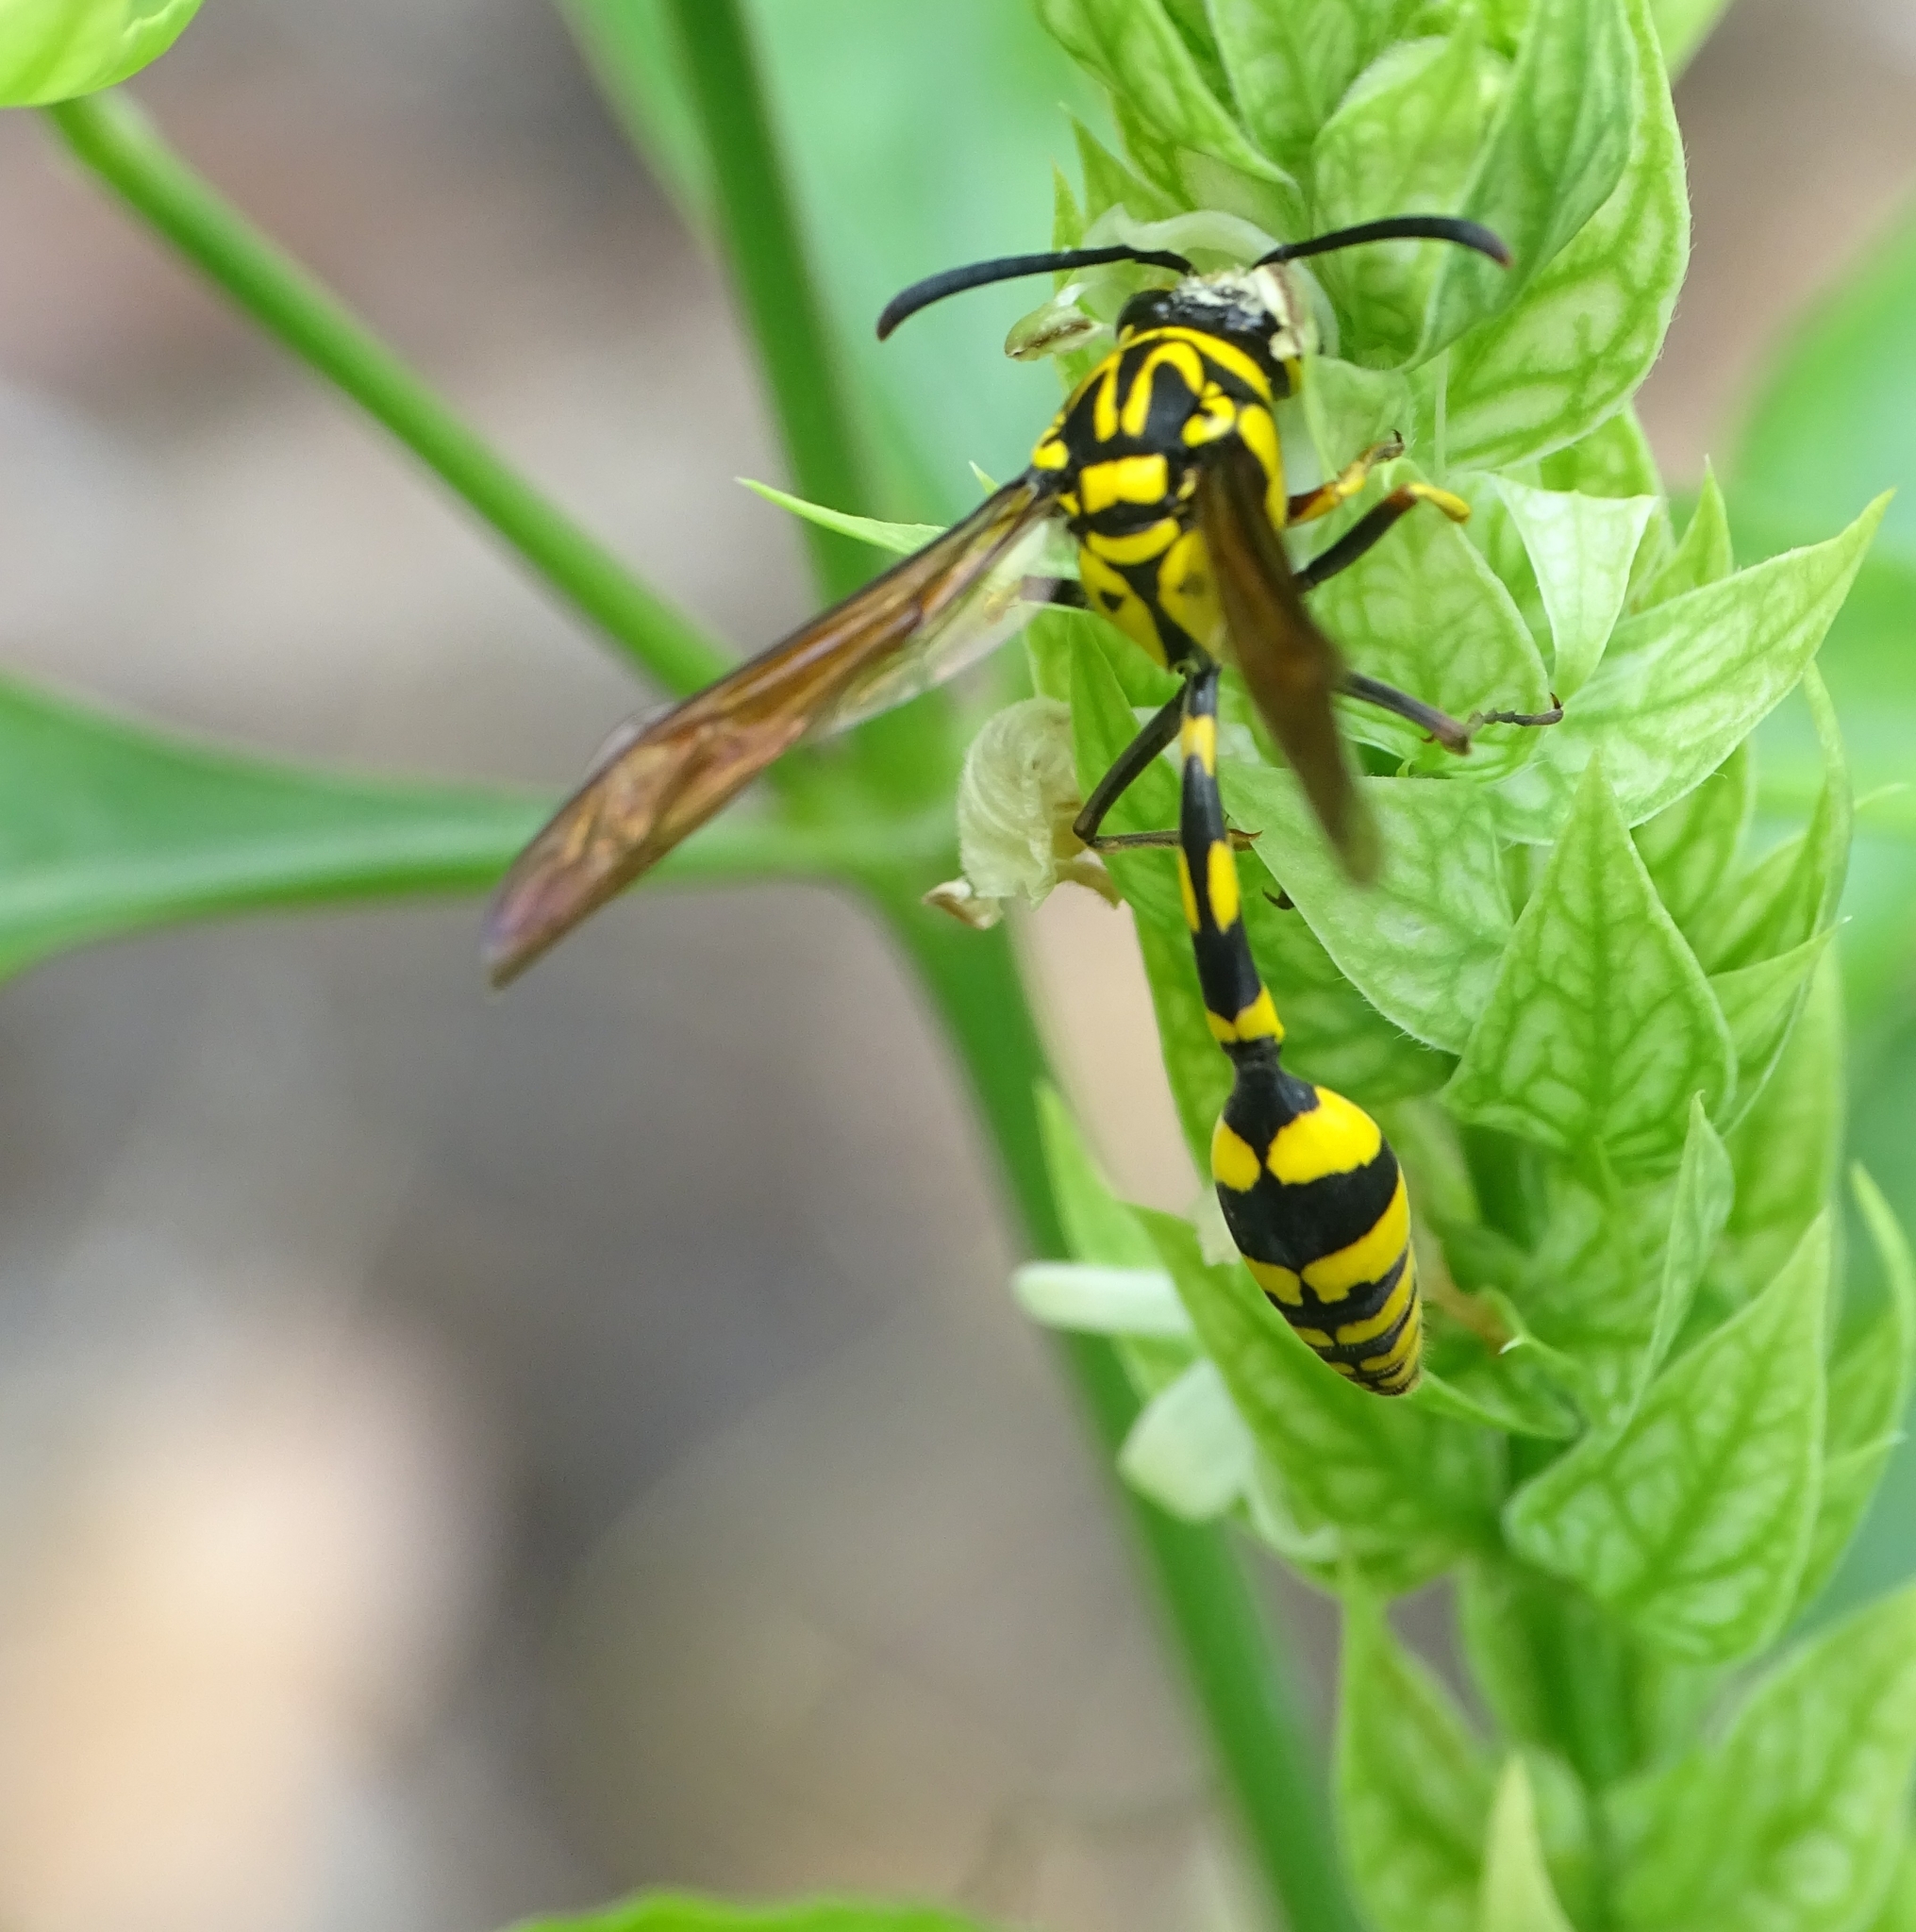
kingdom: Animalia
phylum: Arthropoda
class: Insecta
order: Hymenoptera
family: Eumenidae
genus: Phimenes
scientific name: Phimenes flavopictus
